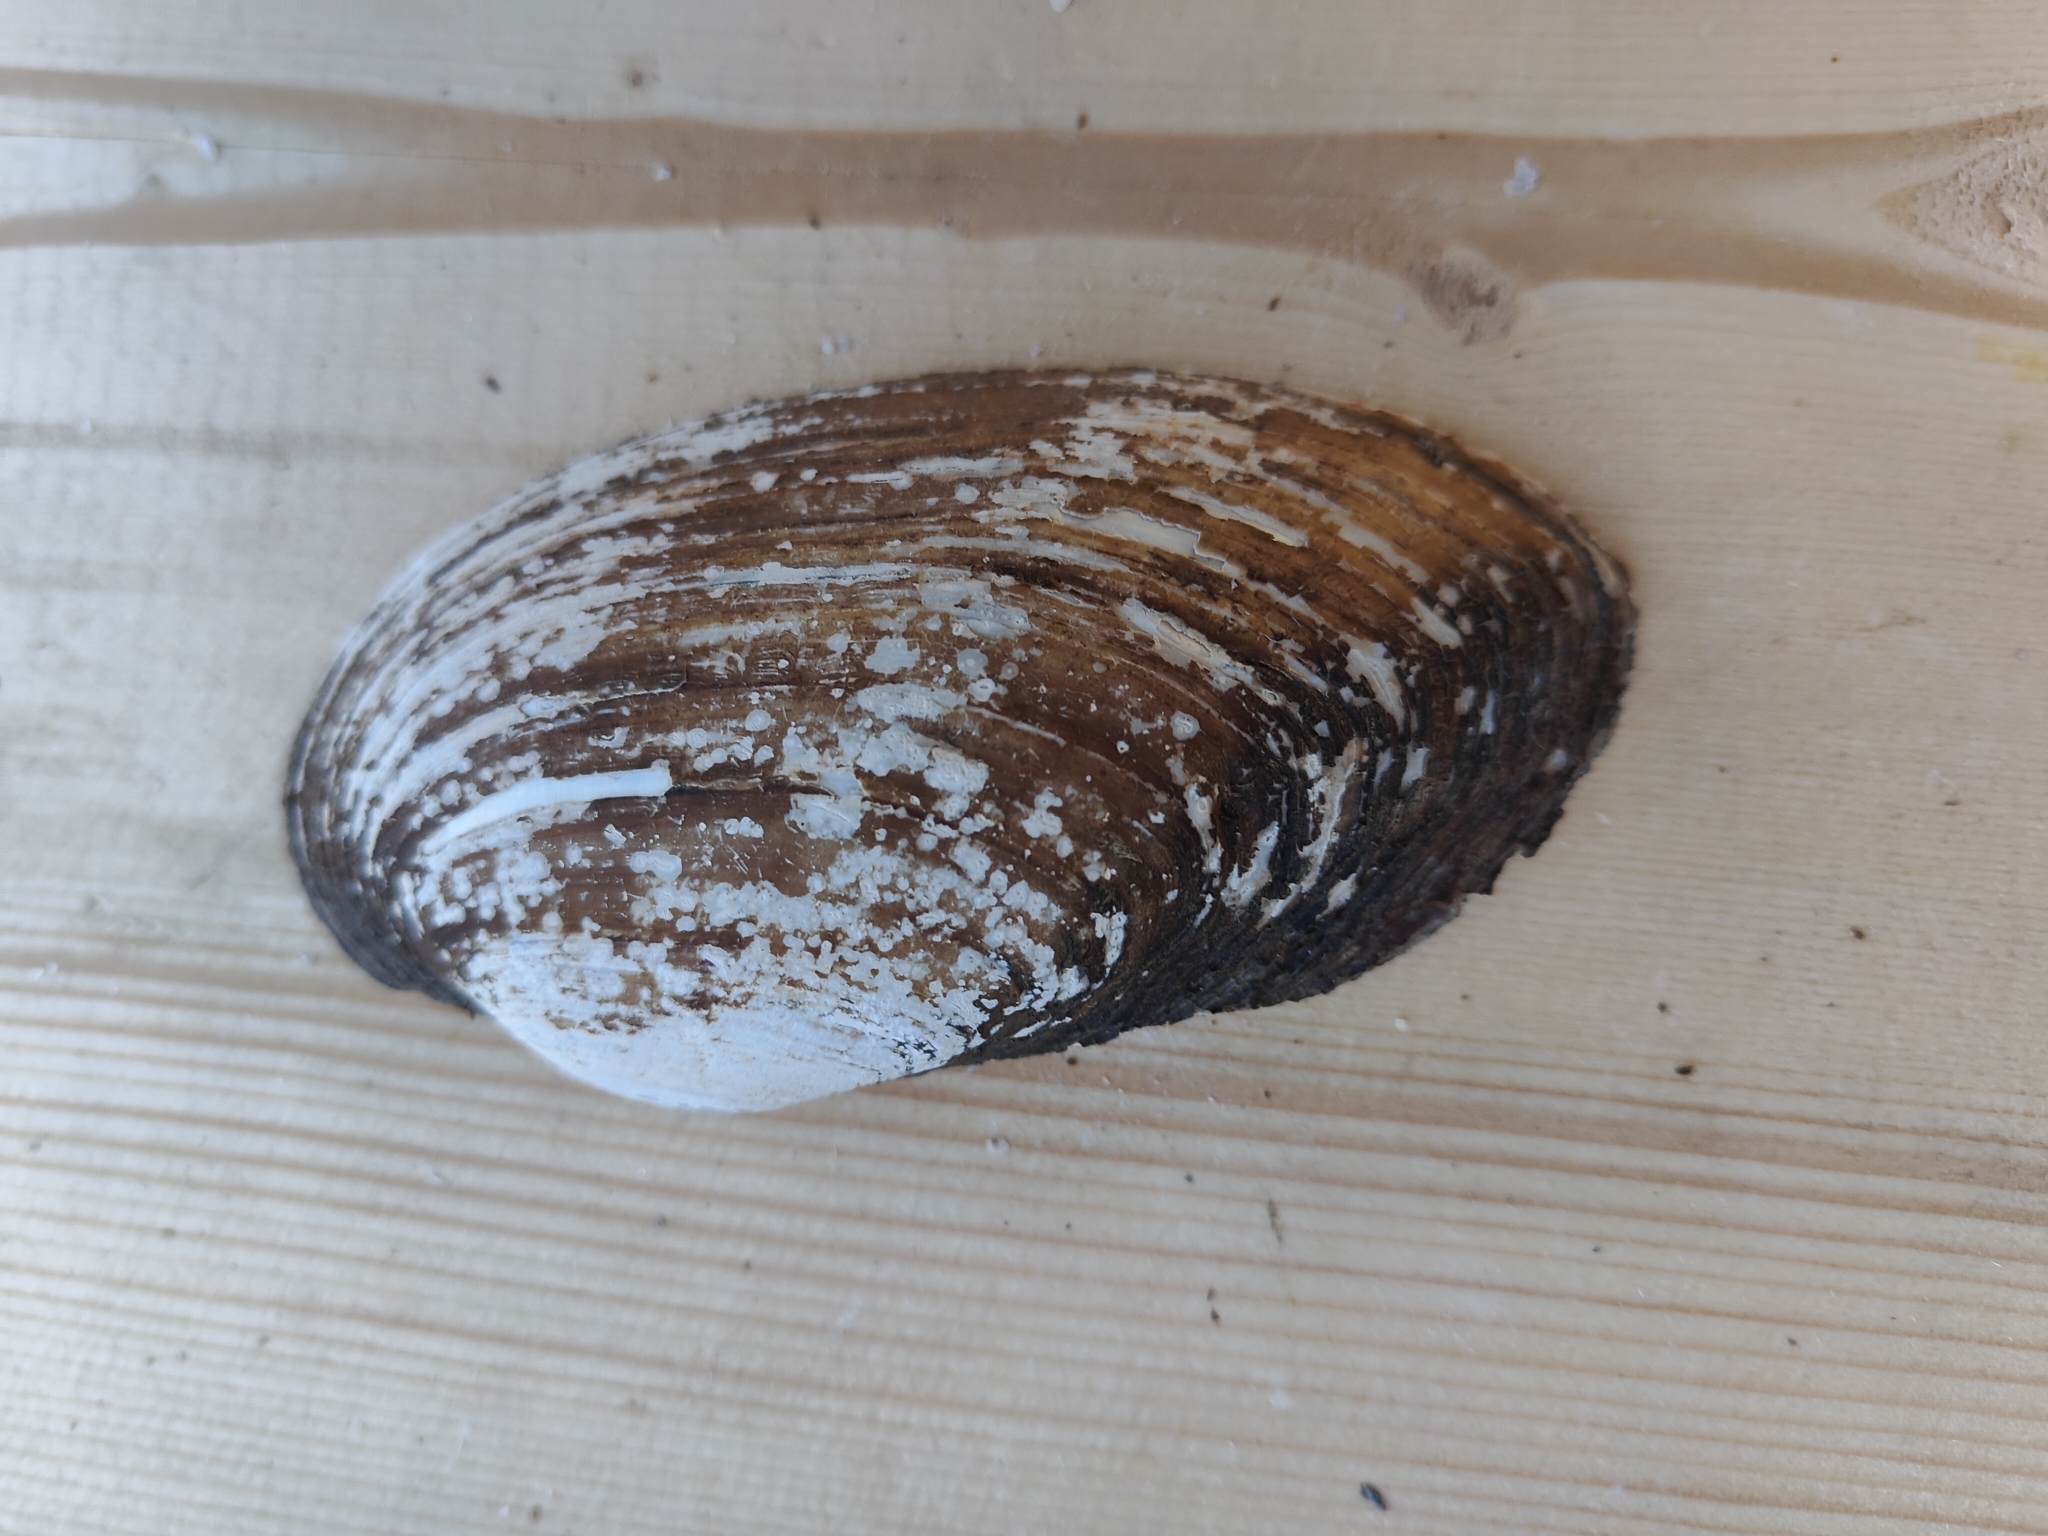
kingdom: Animalia
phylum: Mollusca
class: Bivalvia
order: Unionida
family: Unionidae
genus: Lampsilis
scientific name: Lampsilis siliquoidea
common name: Fatmucket
